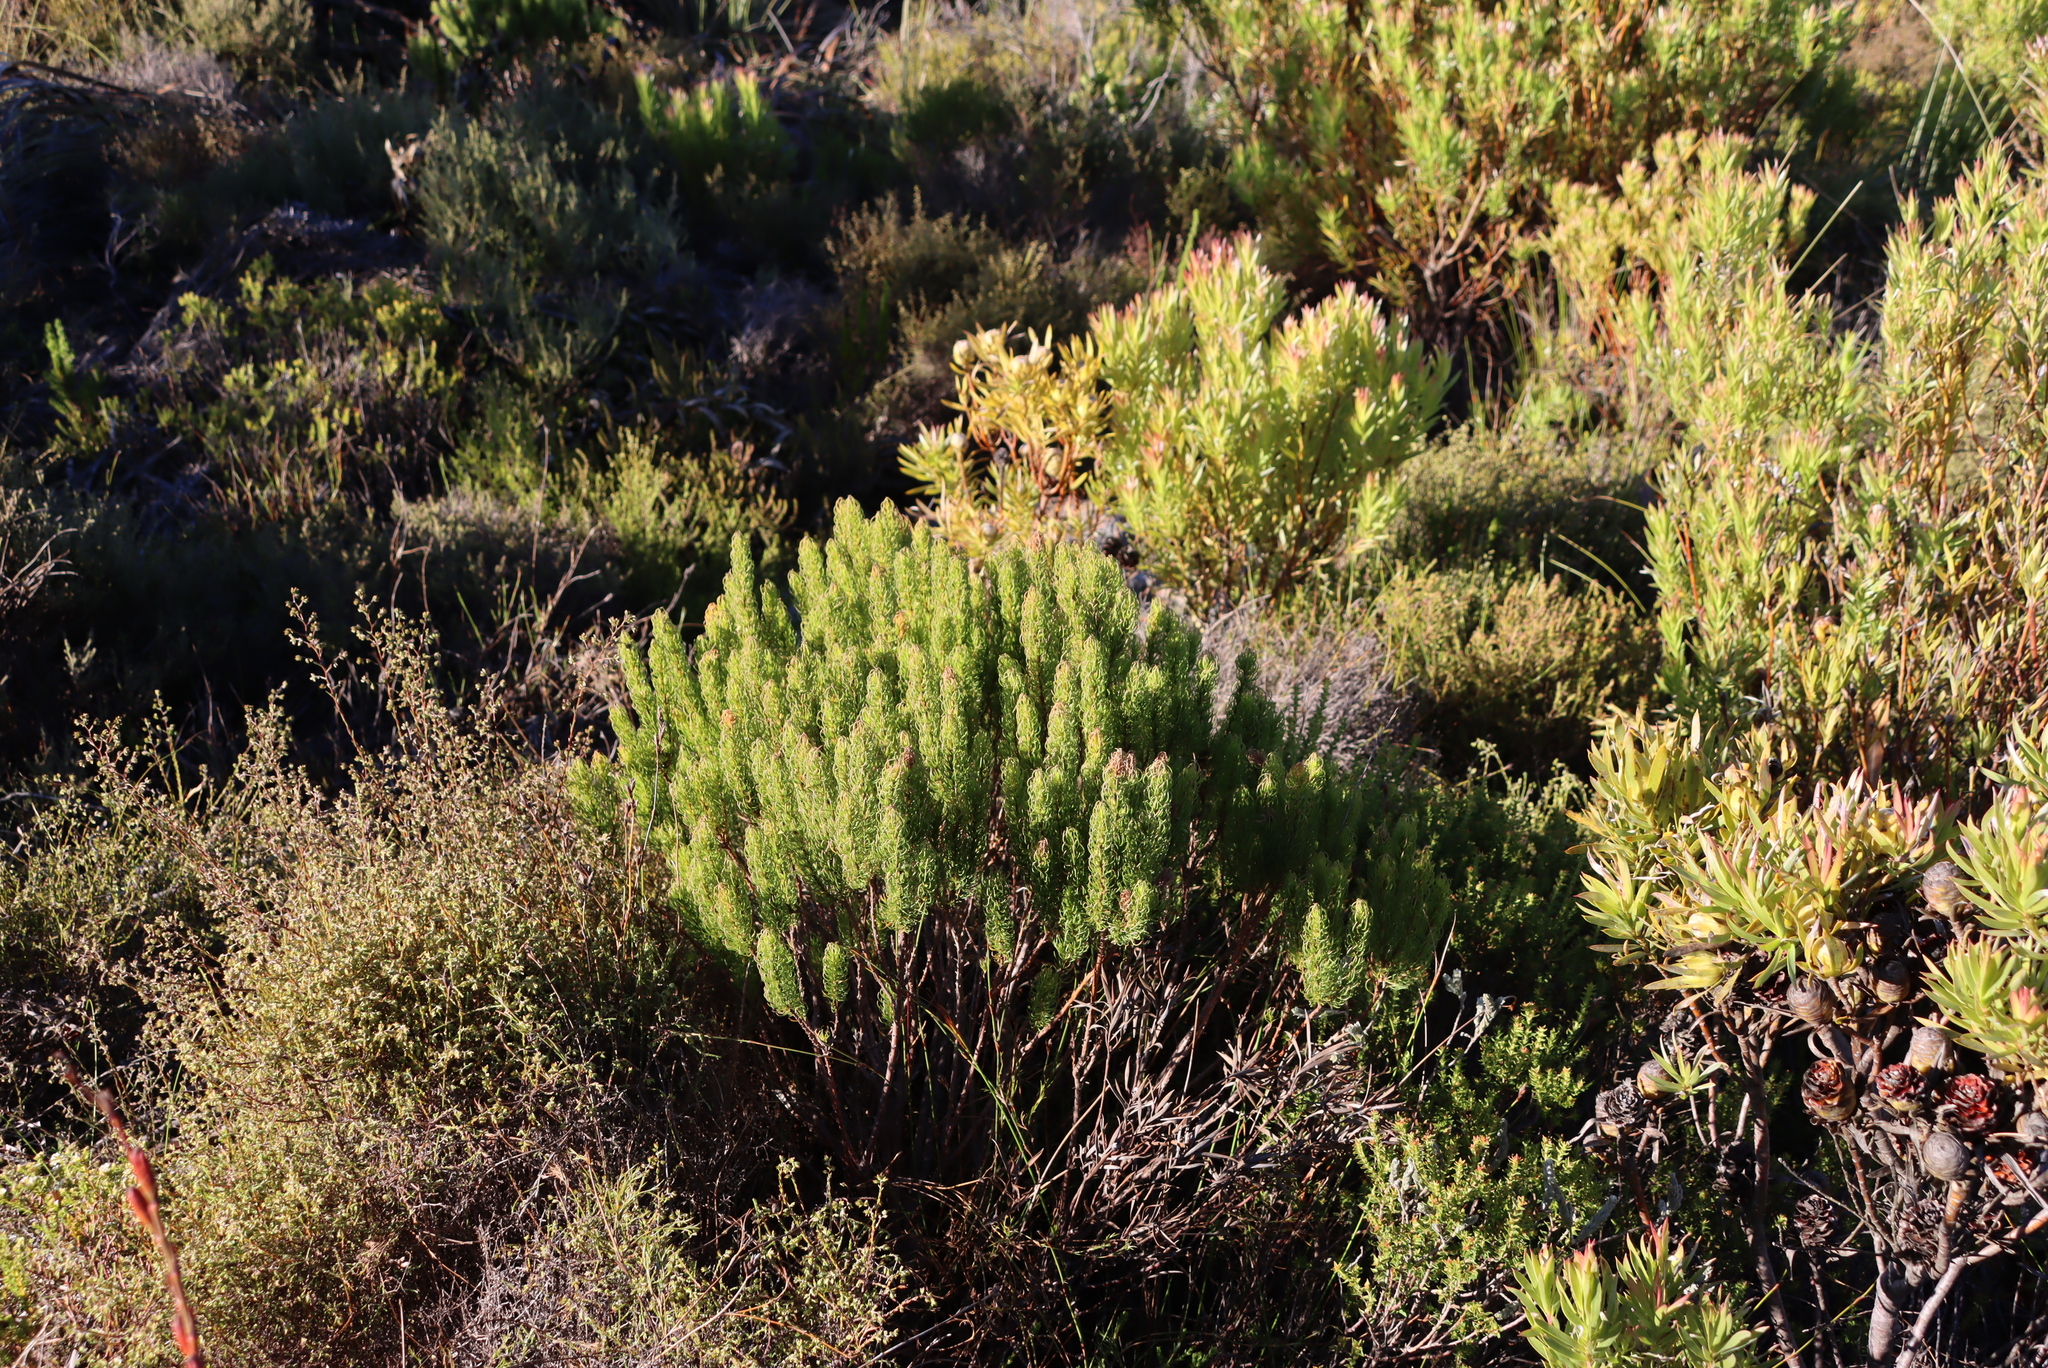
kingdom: Plantae
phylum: Tracheophyta
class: Magnoliopsida
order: Ericales
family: Ericaceae
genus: Erica
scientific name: Erica plukenetii
